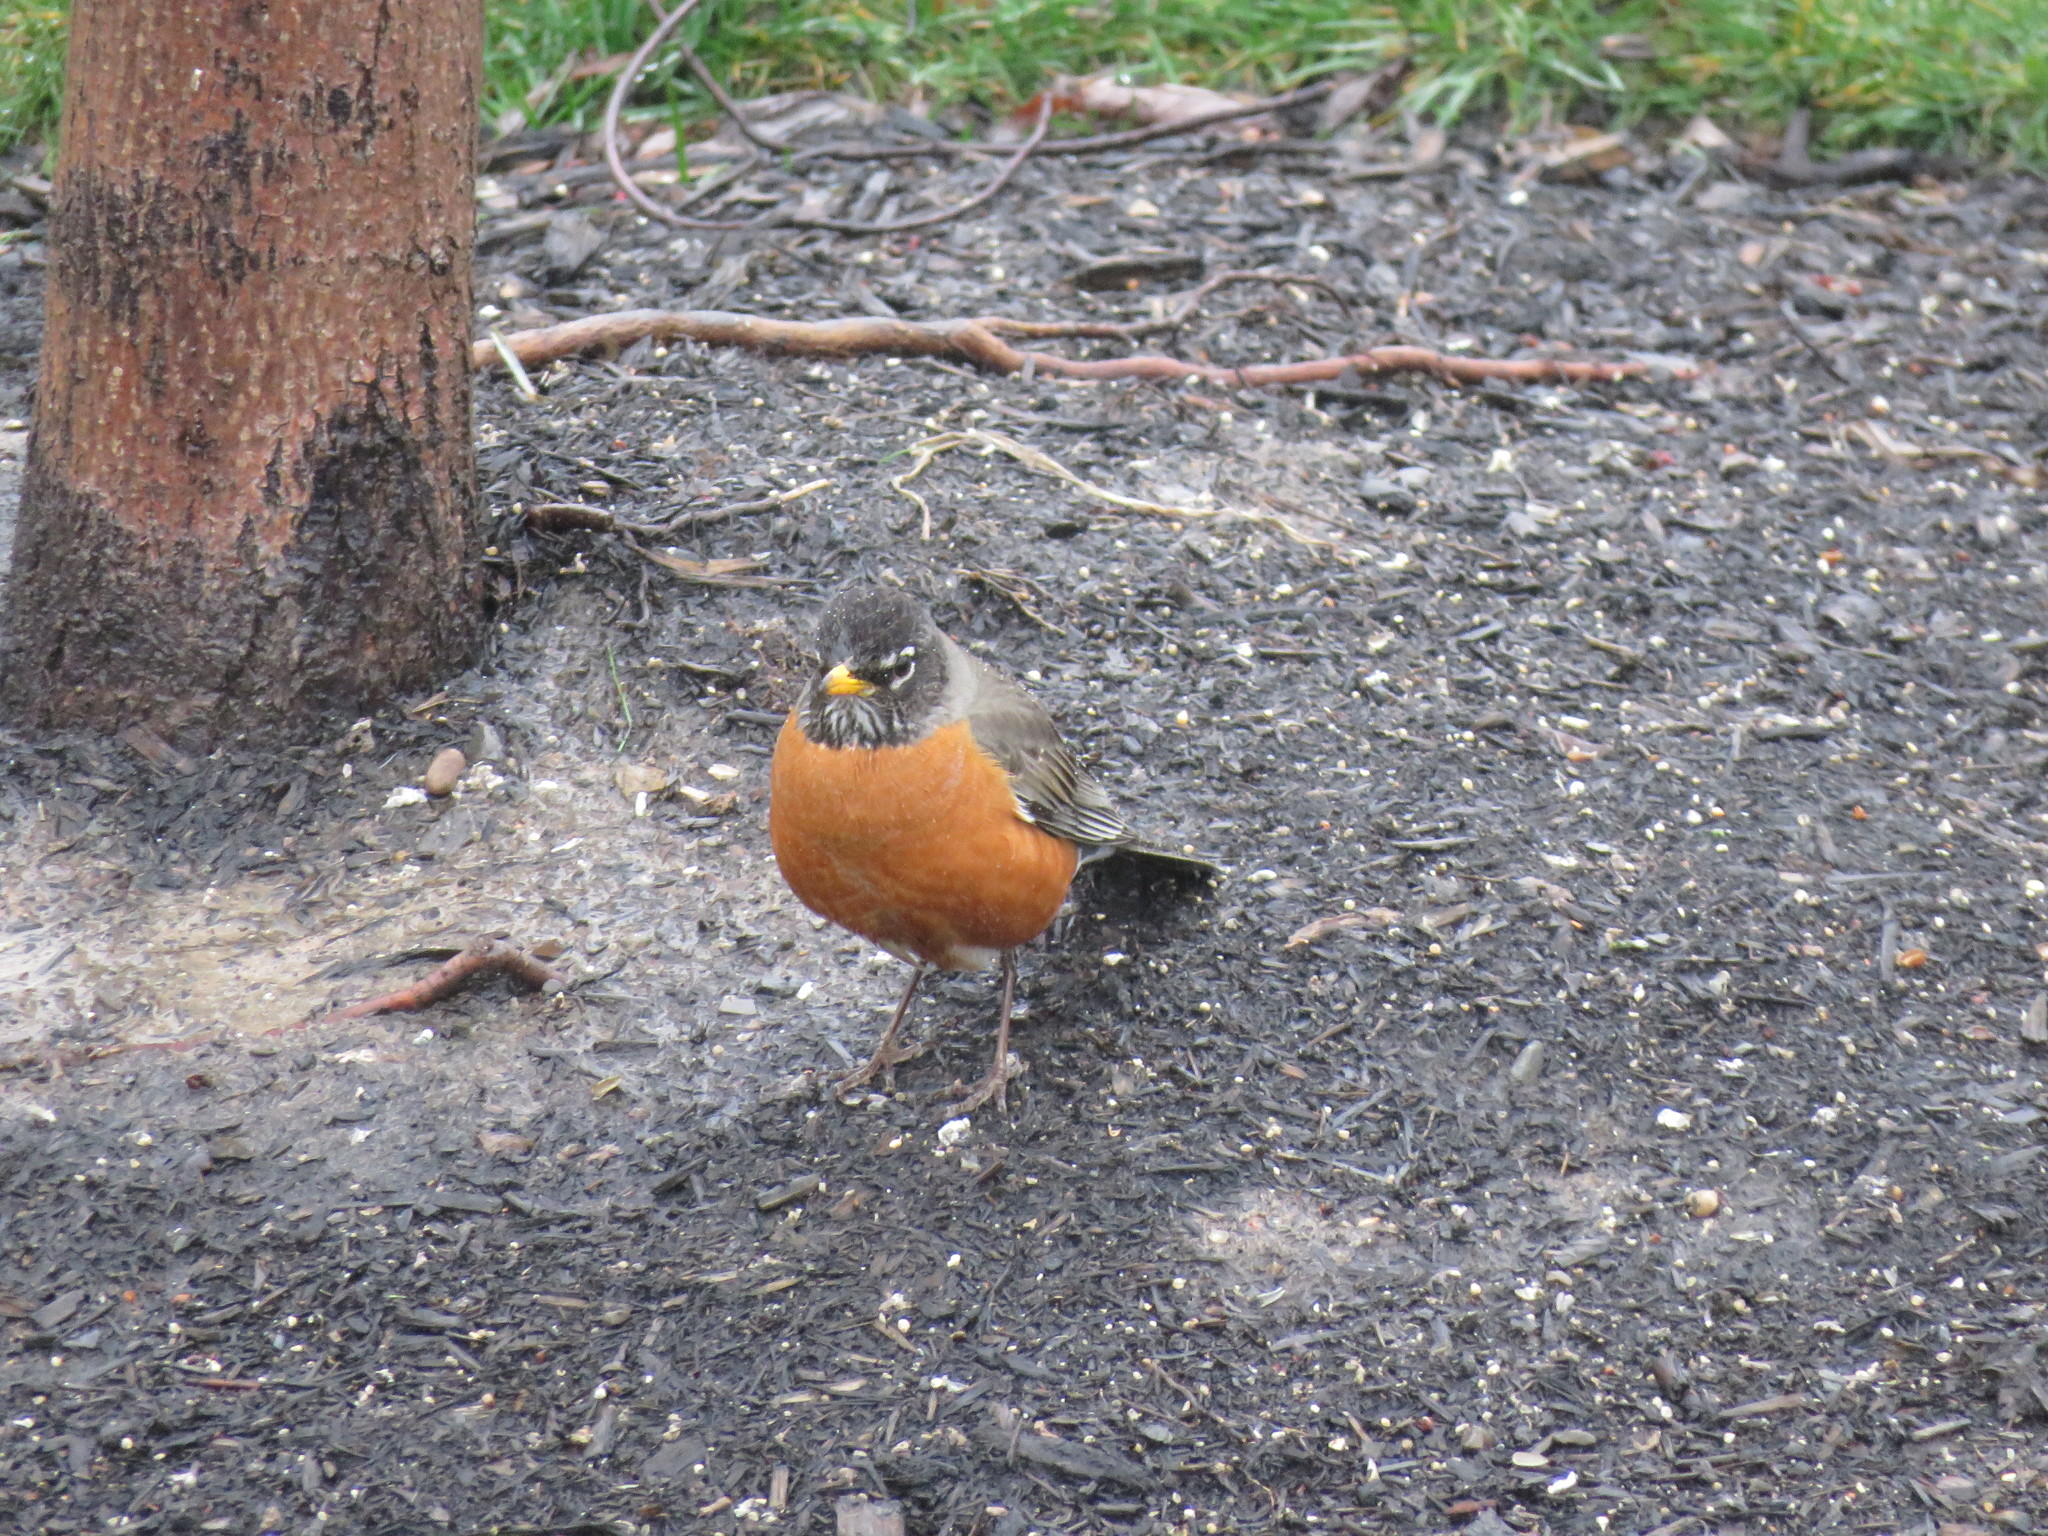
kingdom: Animalia
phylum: Chordata
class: Aves
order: Passeriformes
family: Turdidae
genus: Turdus
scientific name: Turdus migratorius
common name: American robin
